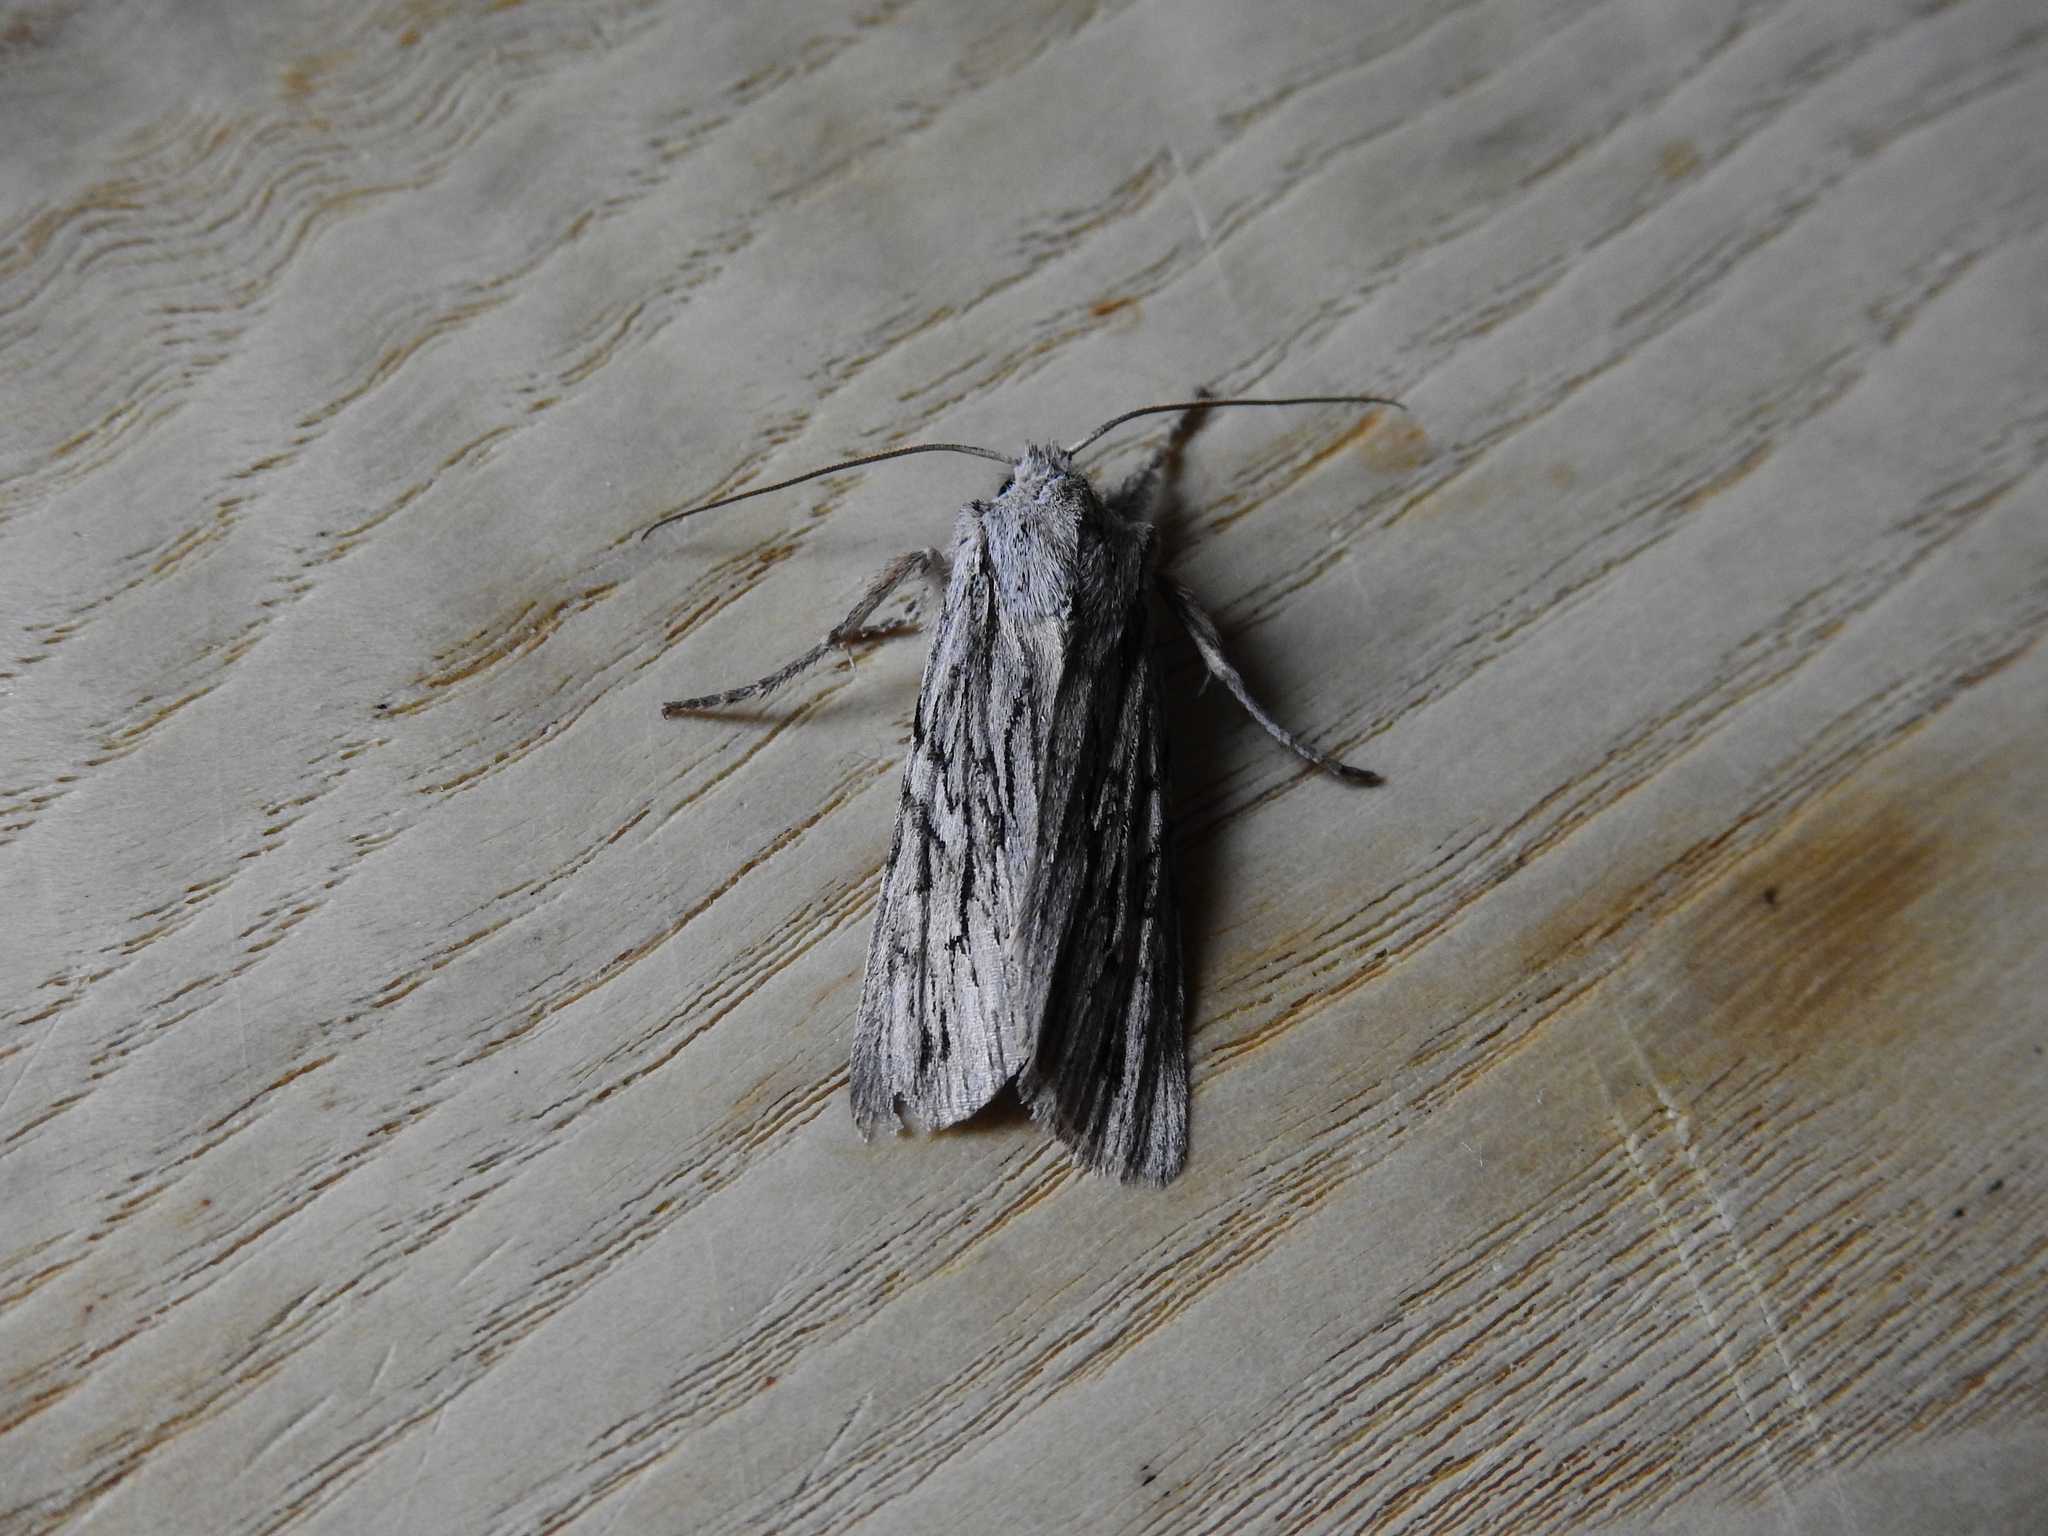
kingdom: Animalia
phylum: Arthropoda
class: Insecta
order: Lepidoptera
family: Noctuidae
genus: Lithophane
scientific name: Lithophane leautieri
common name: Blair's shoulder-knot
